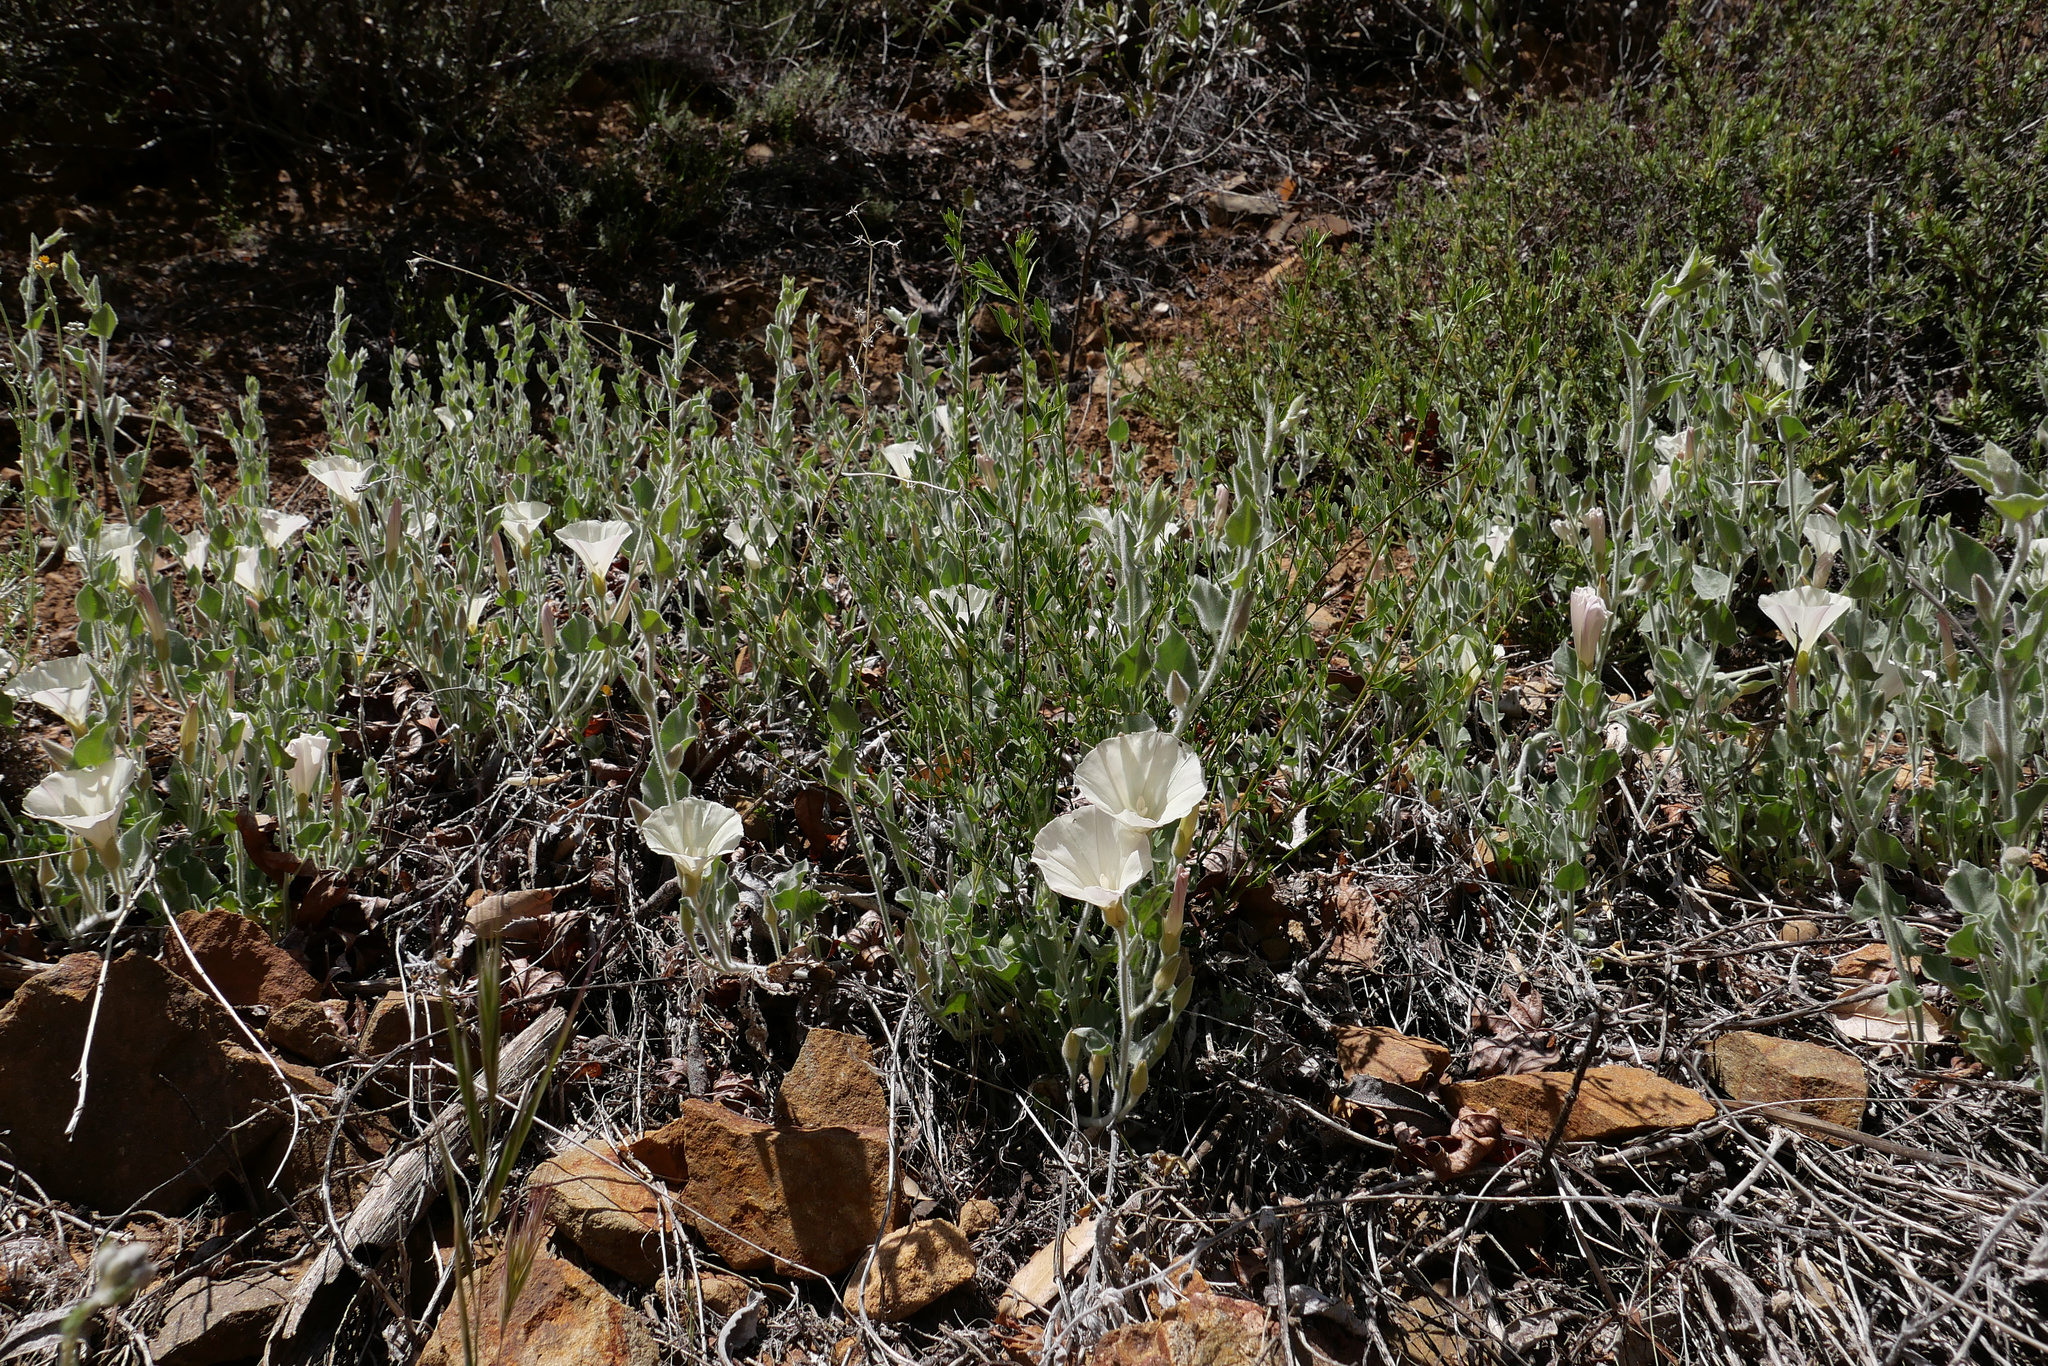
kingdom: Plantae
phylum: Tracheophyta
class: Magnoliopsida
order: Solanales
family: Convolvulaceae
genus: Calystegia
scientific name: Calystegia malacophylla
